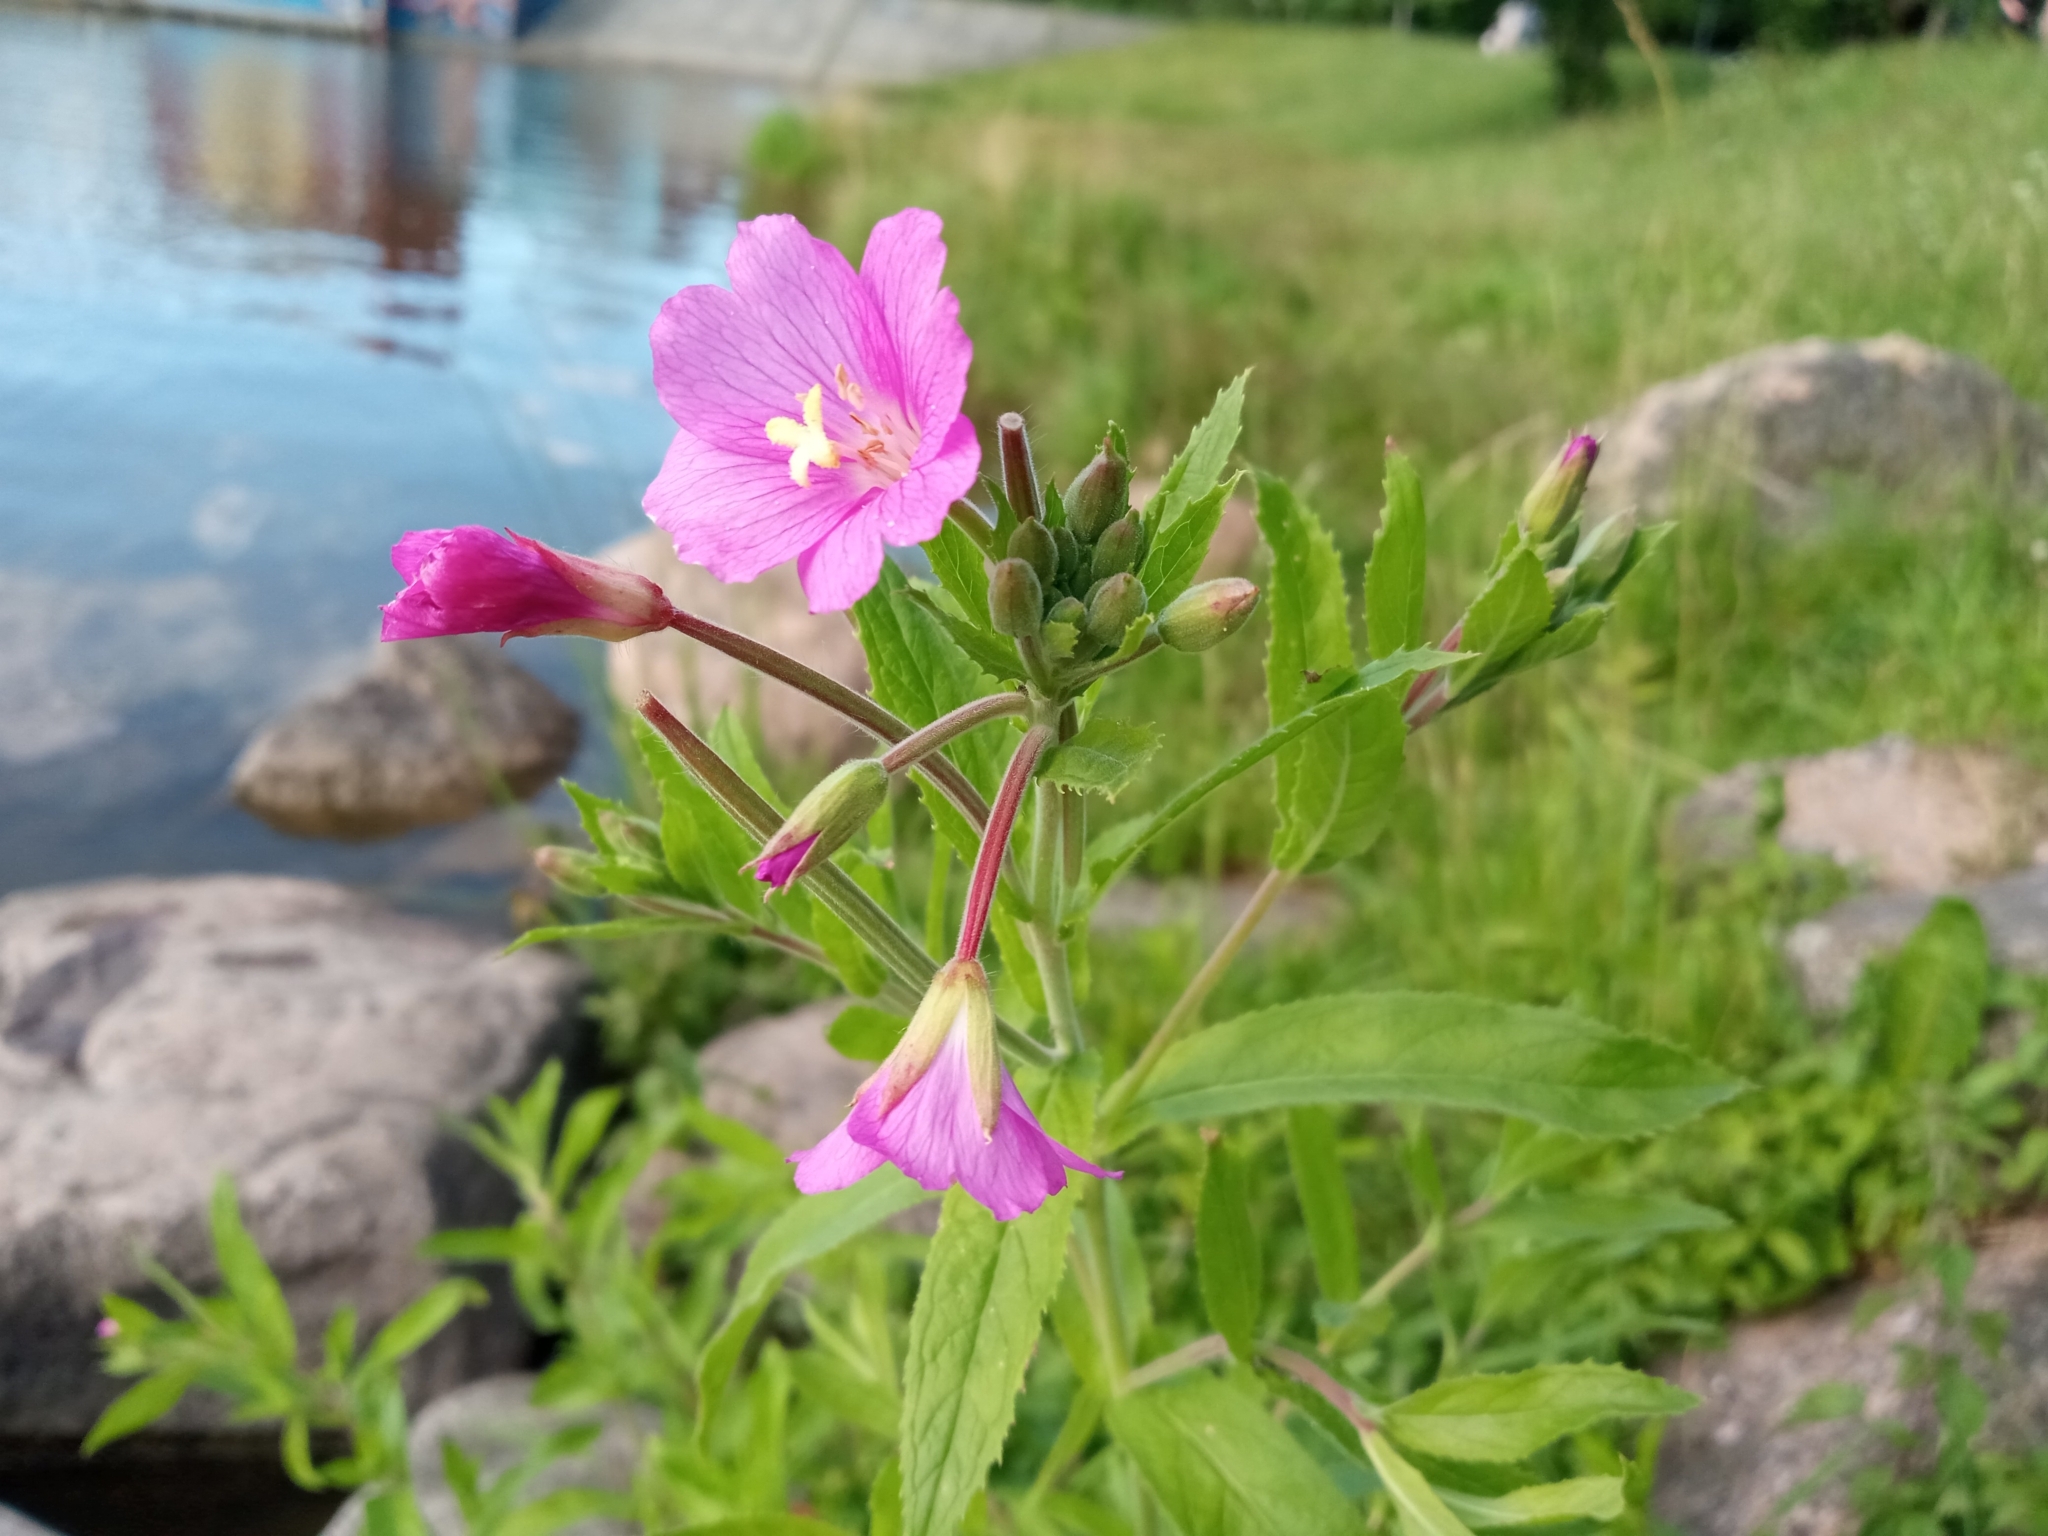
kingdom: Plantae
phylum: Tracheophyta
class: Magnoliopsida
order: Myrtales
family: Onagraceae
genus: Epilobium
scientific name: Epilobium hirsutum
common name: Great willowherb
